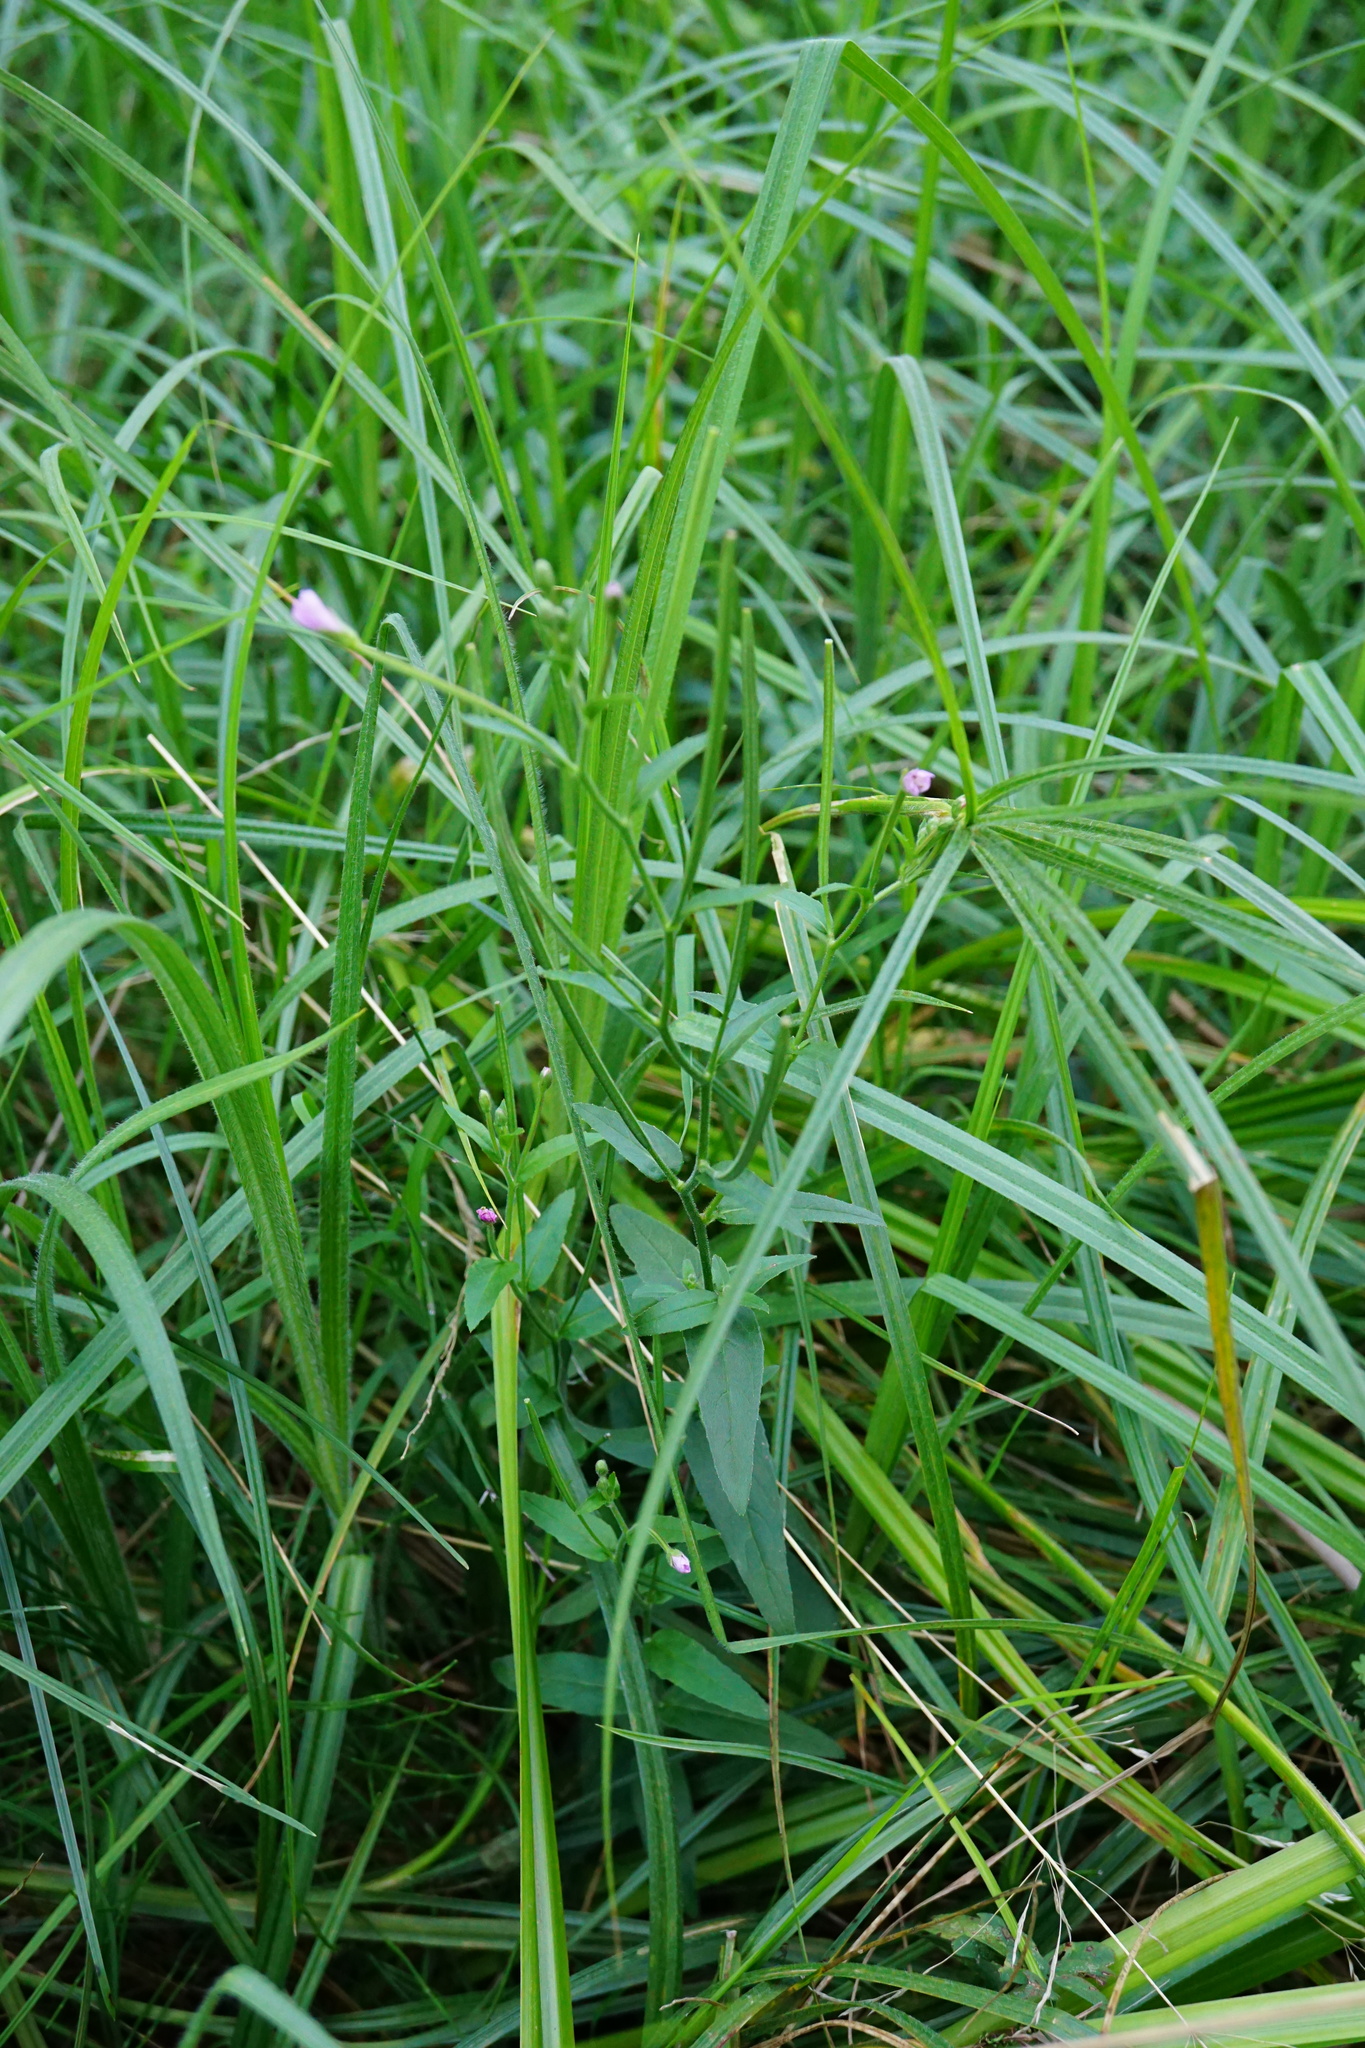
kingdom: Plantae
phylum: Tracheophyta
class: Magnoliopsida
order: Myrtales
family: Onagraceae
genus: Epilobium
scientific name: Epilobium parviflorum
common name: Hoary willowherb
